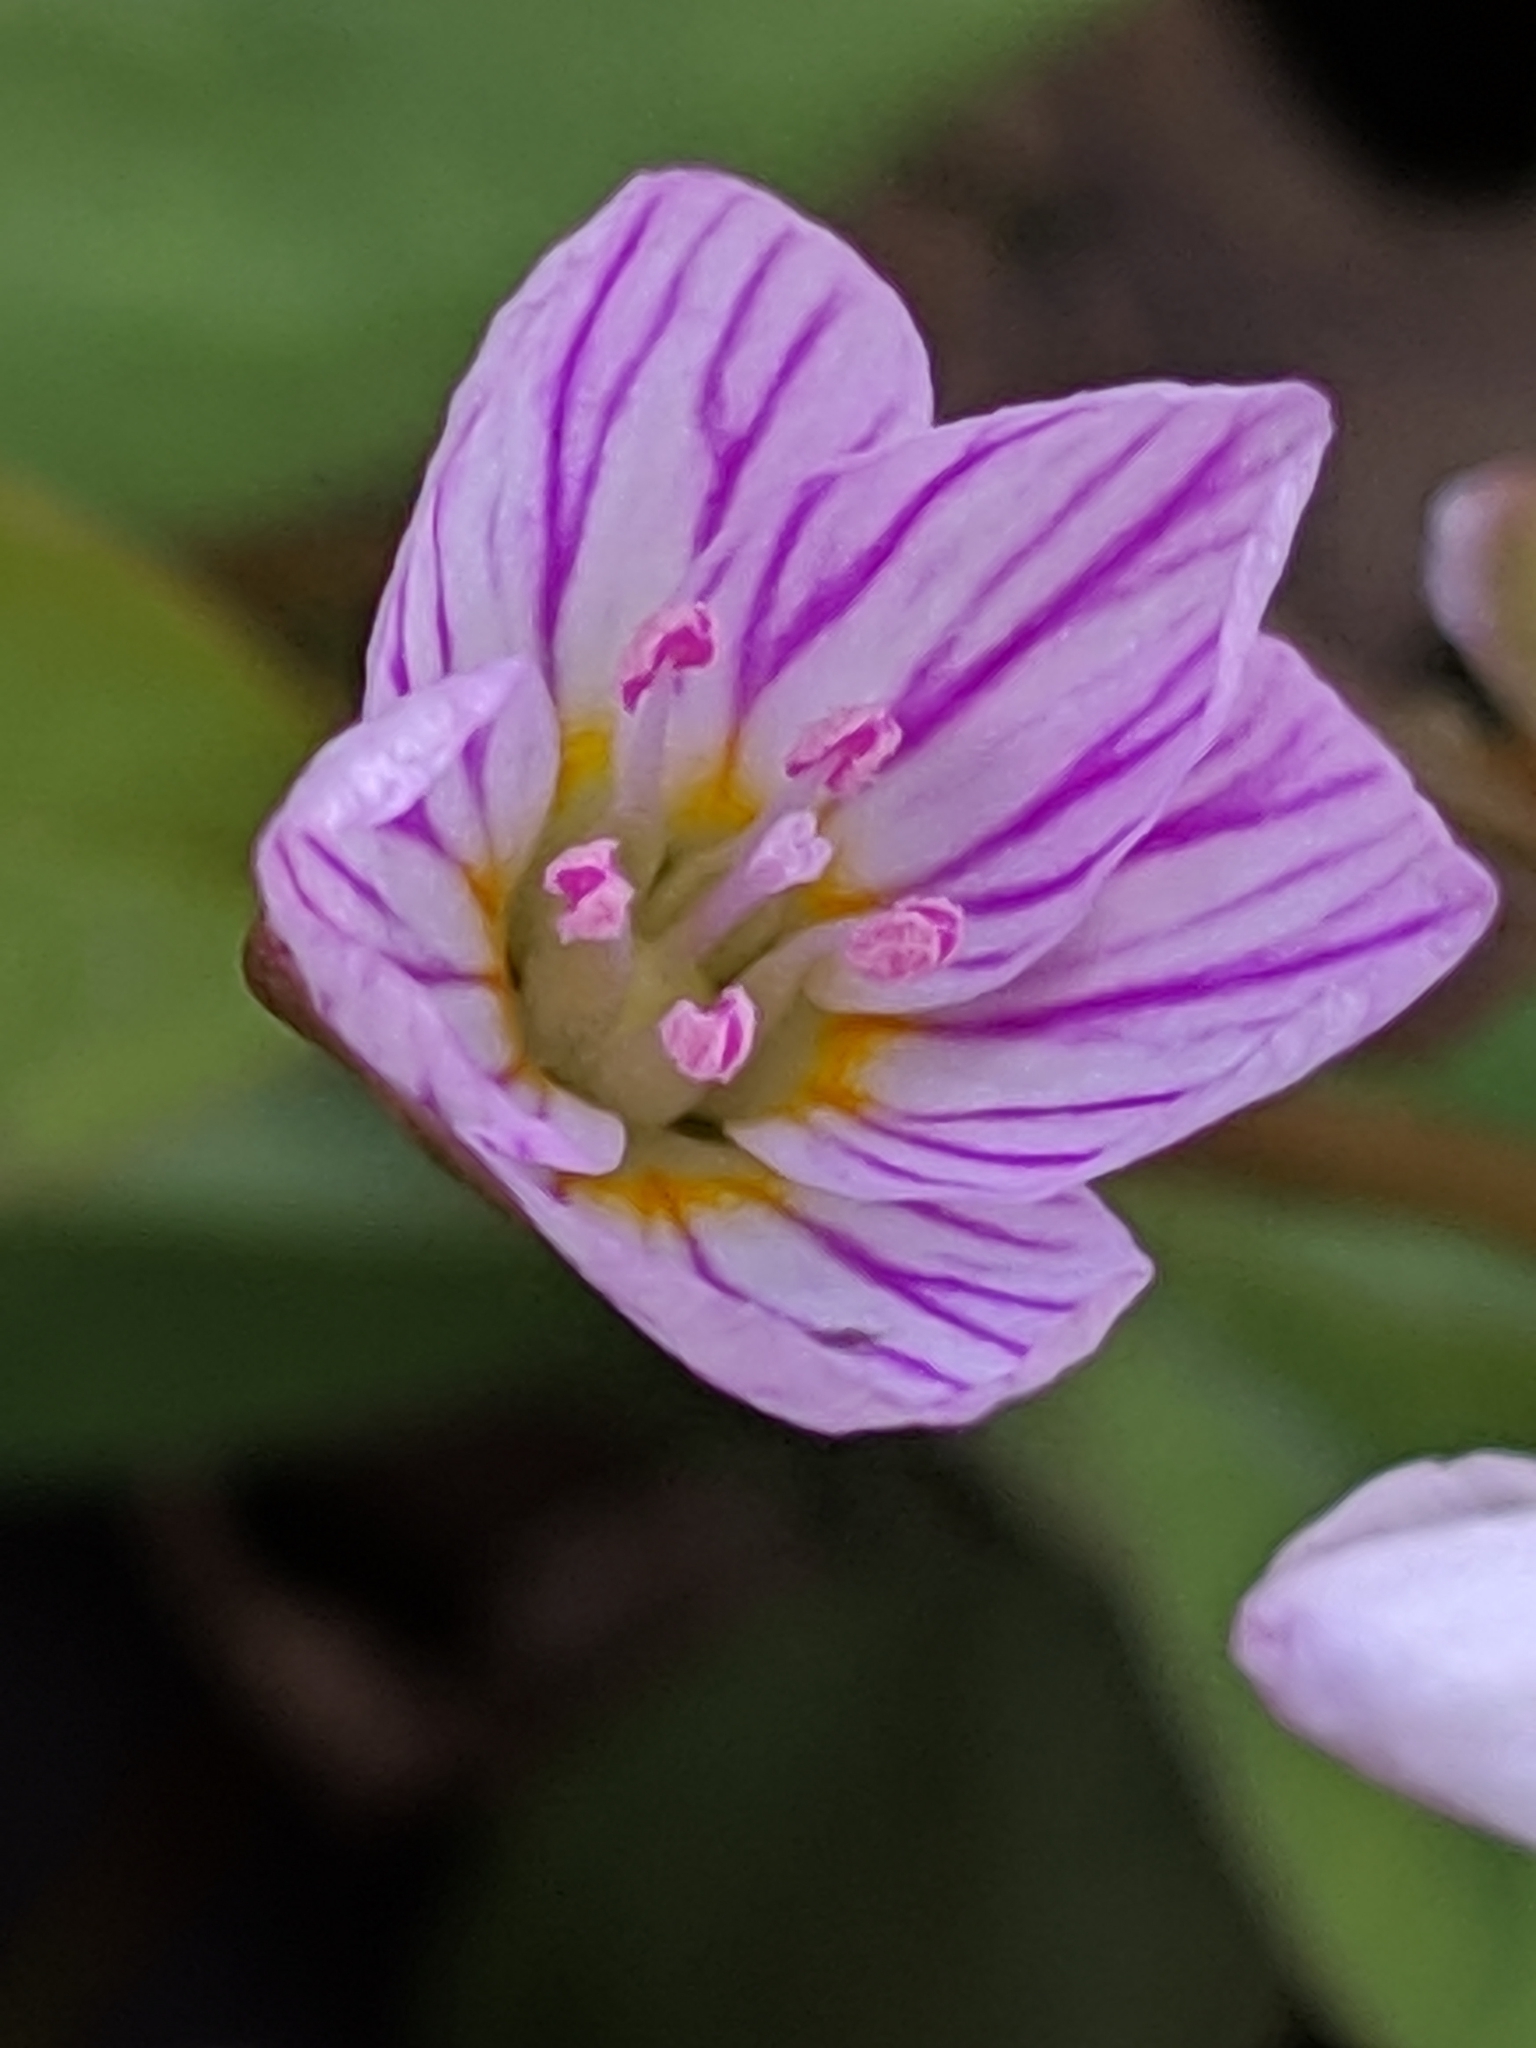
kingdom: Plantae
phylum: Tracheophyta
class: Magnoliopsida
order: Caryophyllales
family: Montiaceae
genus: Claytonia
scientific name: Claytonia
